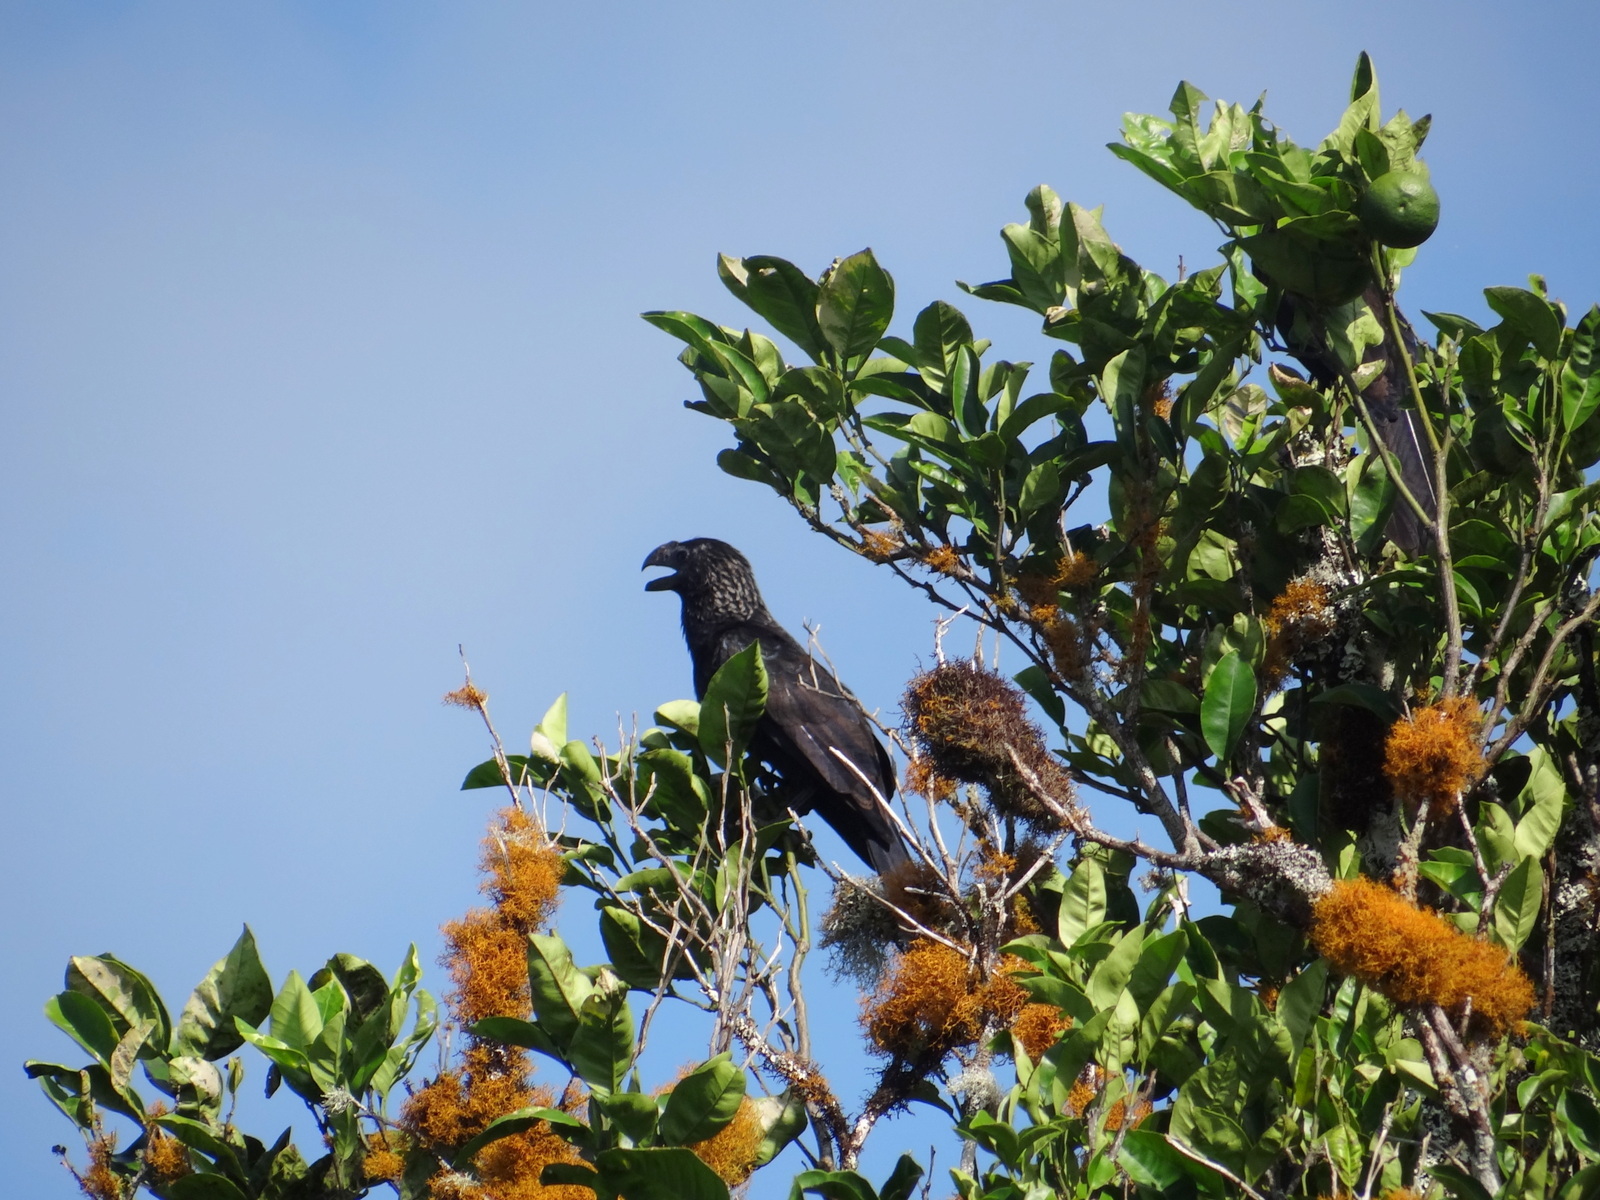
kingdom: Animalia
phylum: Chordata
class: Aves
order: Cuculiformes
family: Cuculidae
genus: Crotophaga
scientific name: Crotophaga ani
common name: Smooth-billed ani
